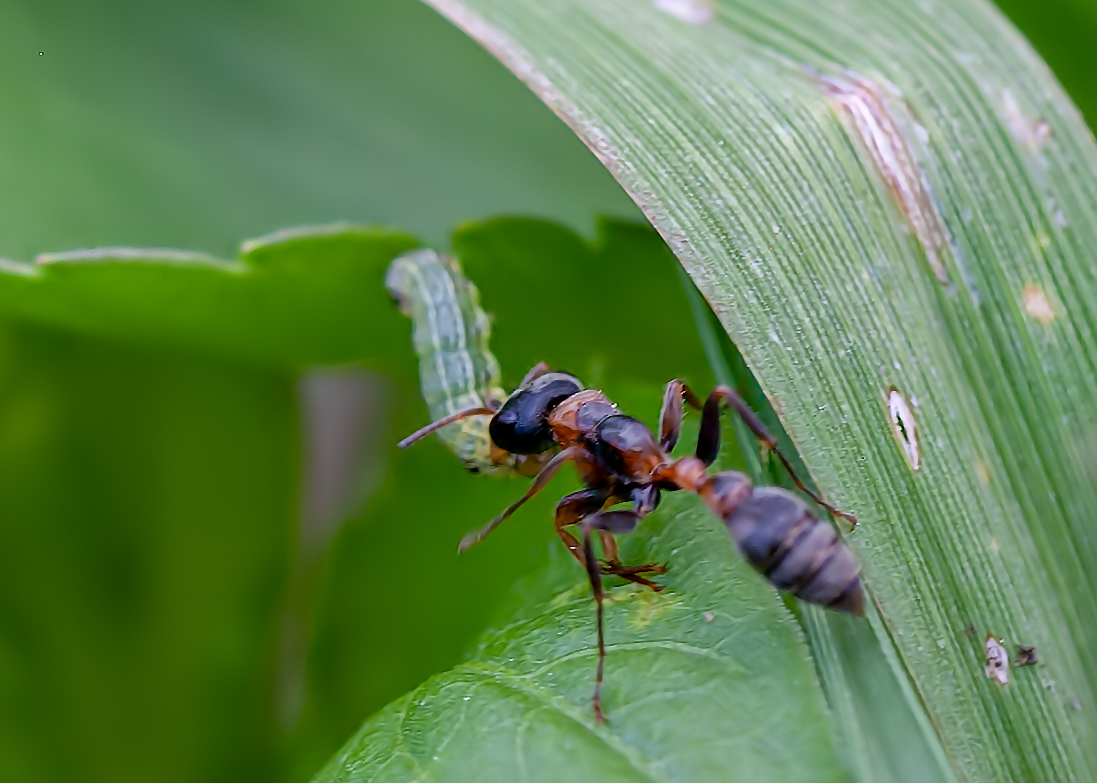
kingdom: Animalia
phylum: Arthropoda
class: Insecta
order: Hymenoptera
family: Formicidae
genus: Pseudomyrmex
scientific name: Pseudomyrmex gracilis
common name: Graceful twig ant
